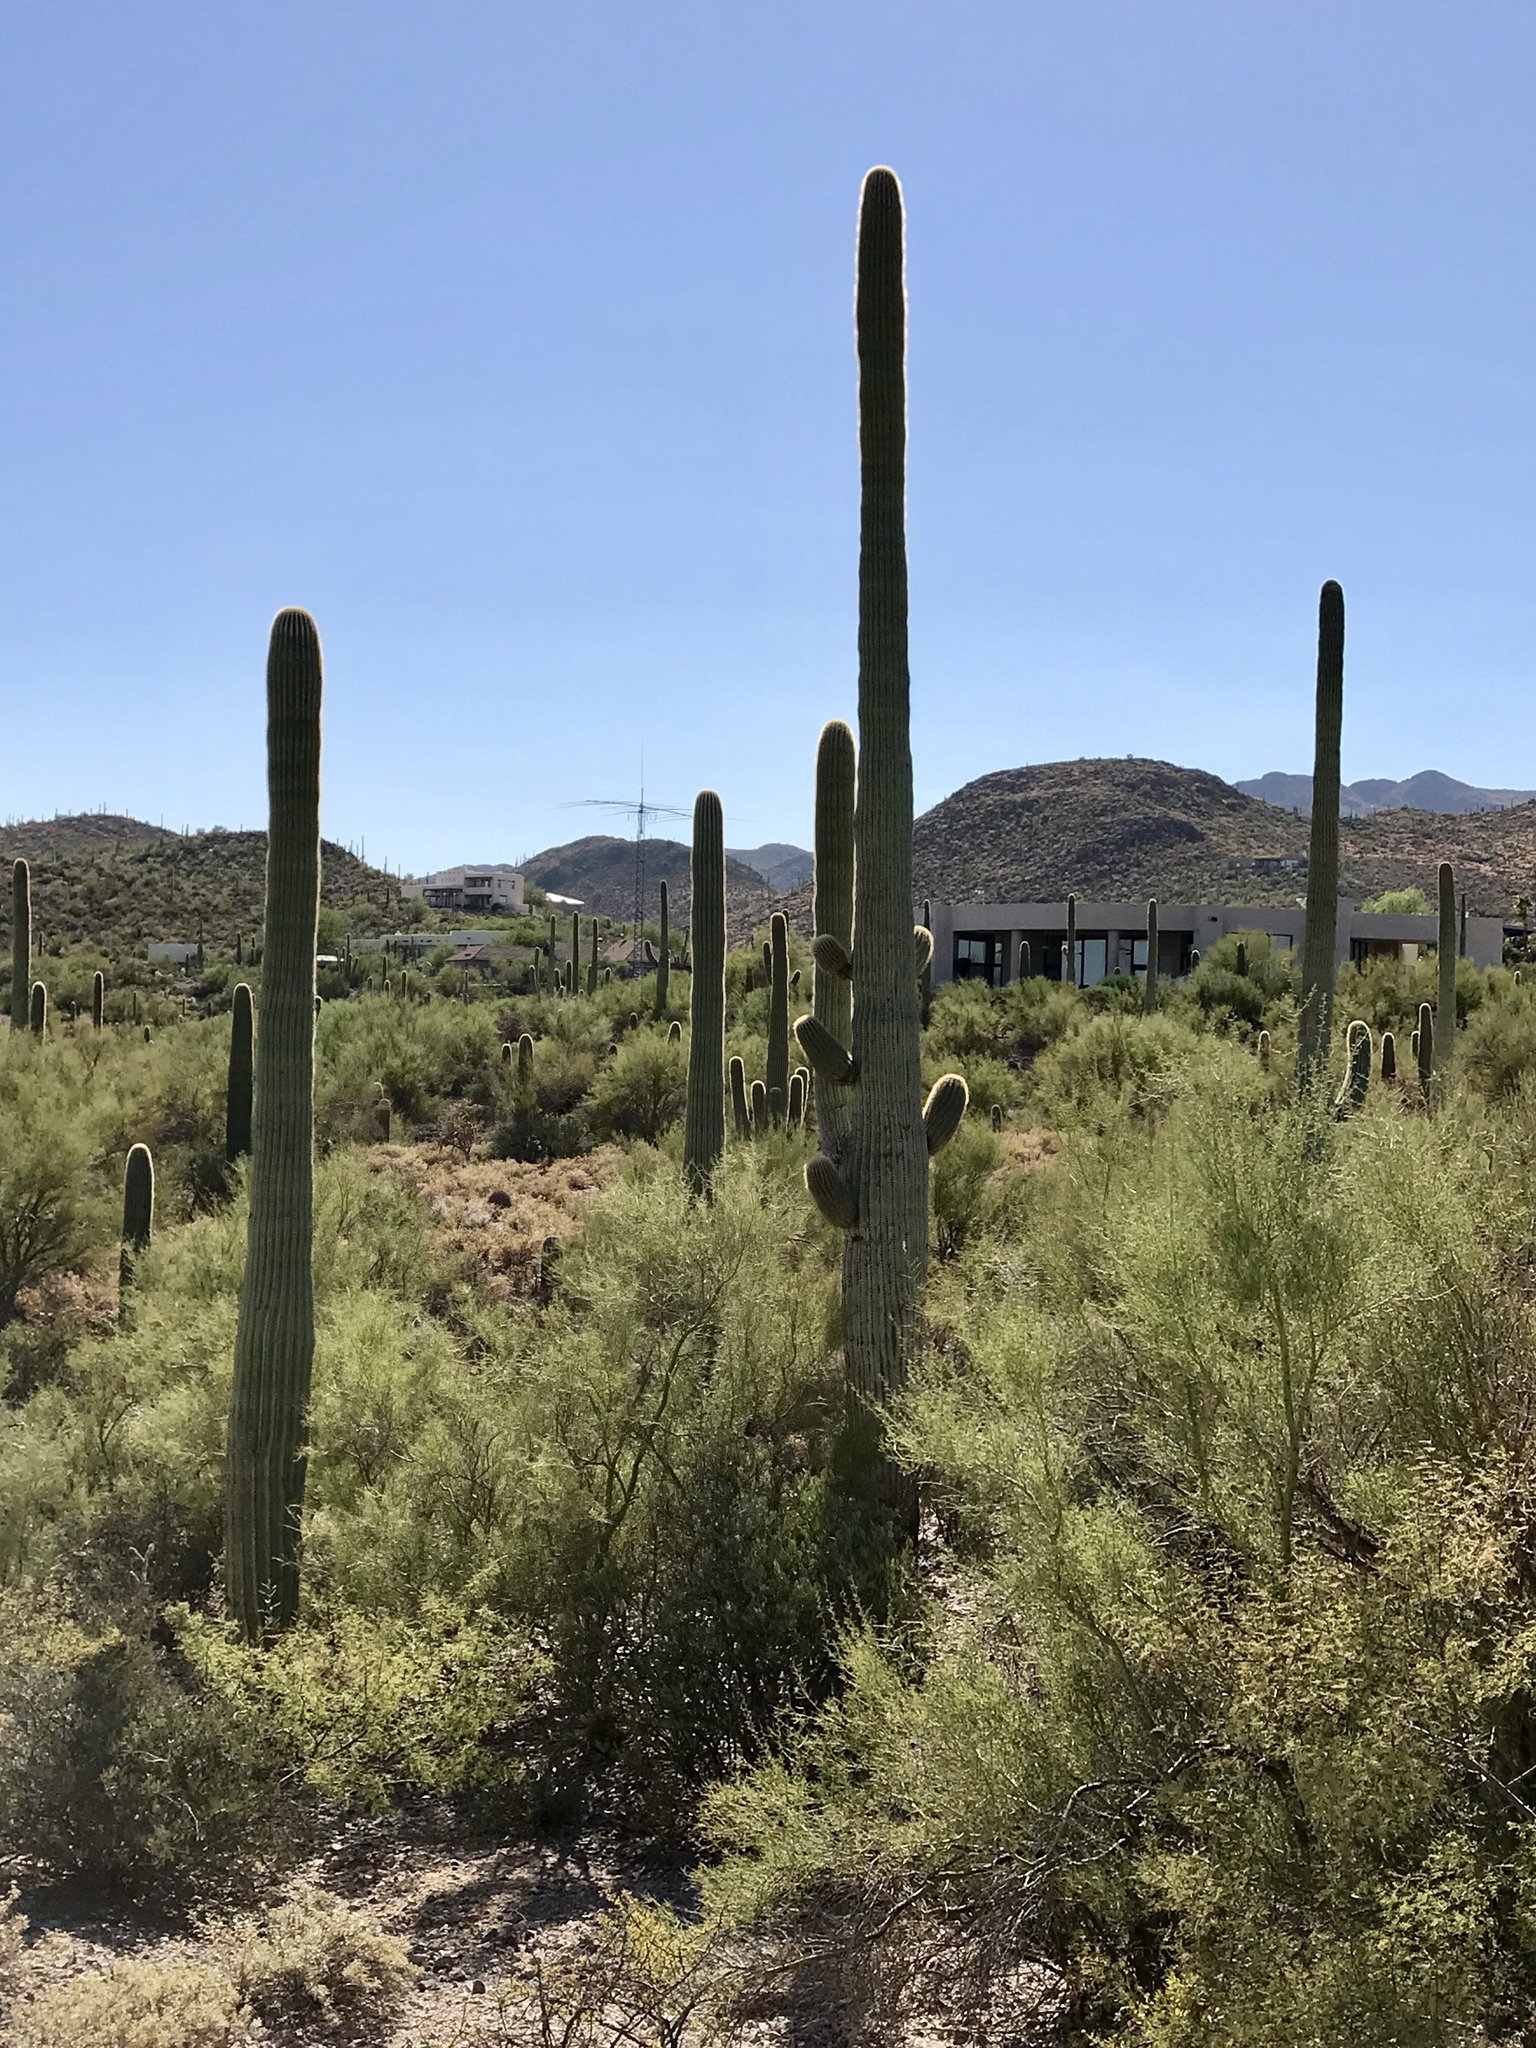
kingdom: Plantae
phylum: Tracheophyta
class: Magnoliopsida
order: Caryophyllales
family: Cactaceae
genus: Carnegiea
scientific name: Carnegiea gigantea
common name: Saguaro
